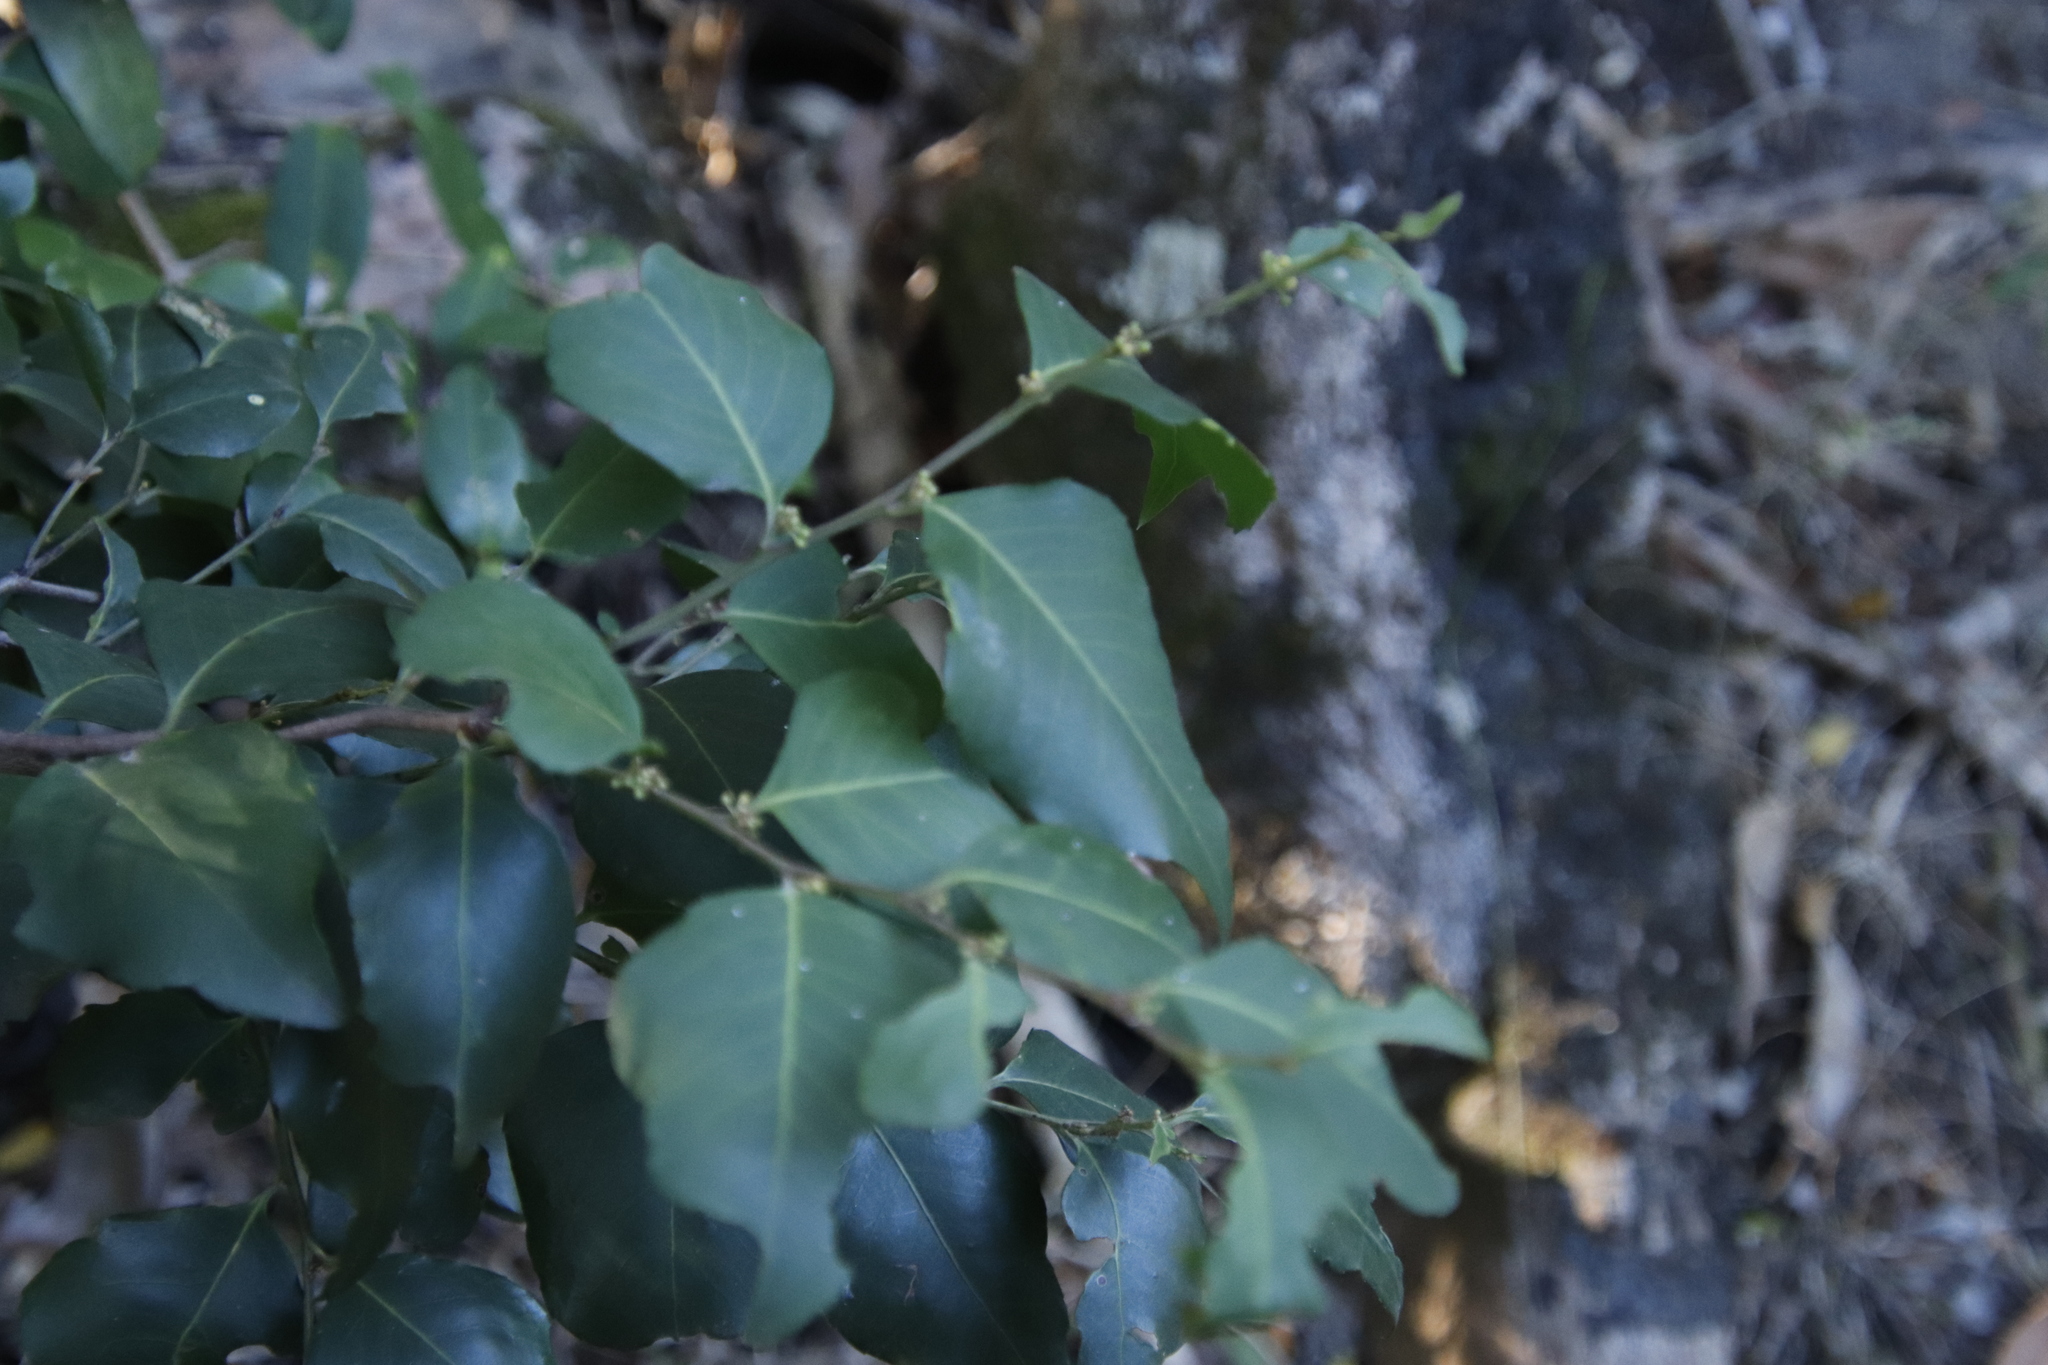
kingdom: Plantae
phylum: Tracheophyta
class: Magnoliopsida
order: Celastrales
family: Celastraceae
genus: Gymnosporia
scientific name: Gymnosporia acuminata
